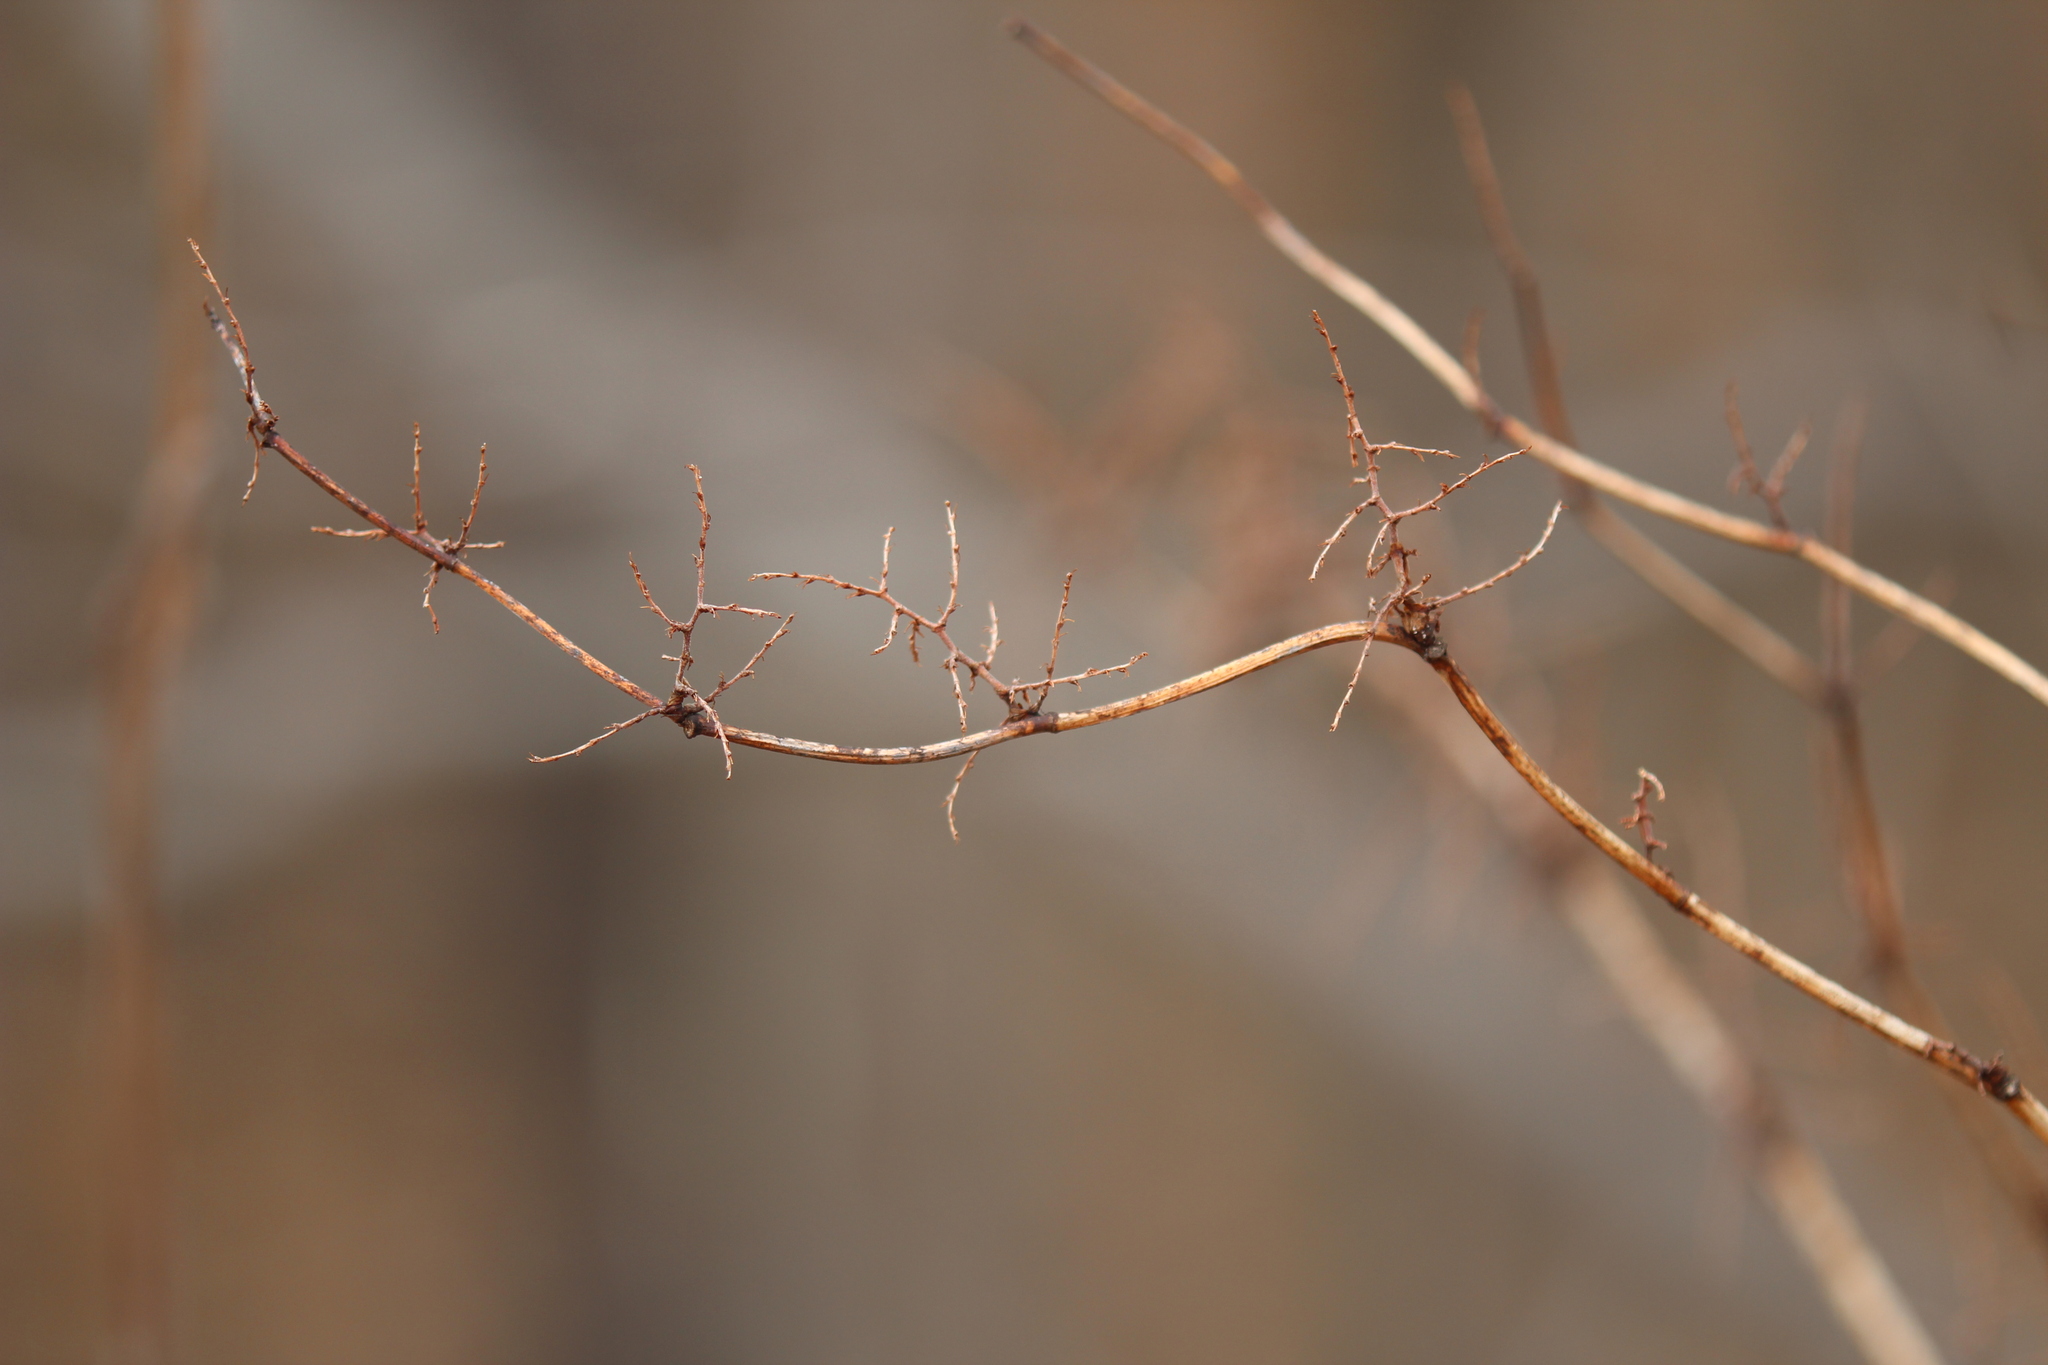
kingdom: Plantae
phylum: Tracheophyta
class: Magnoliopsida
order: Caryophyllales
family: Polygonaceae
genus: Reynoutria
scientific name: Reynoutria japonica
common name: Japanese knotweed
